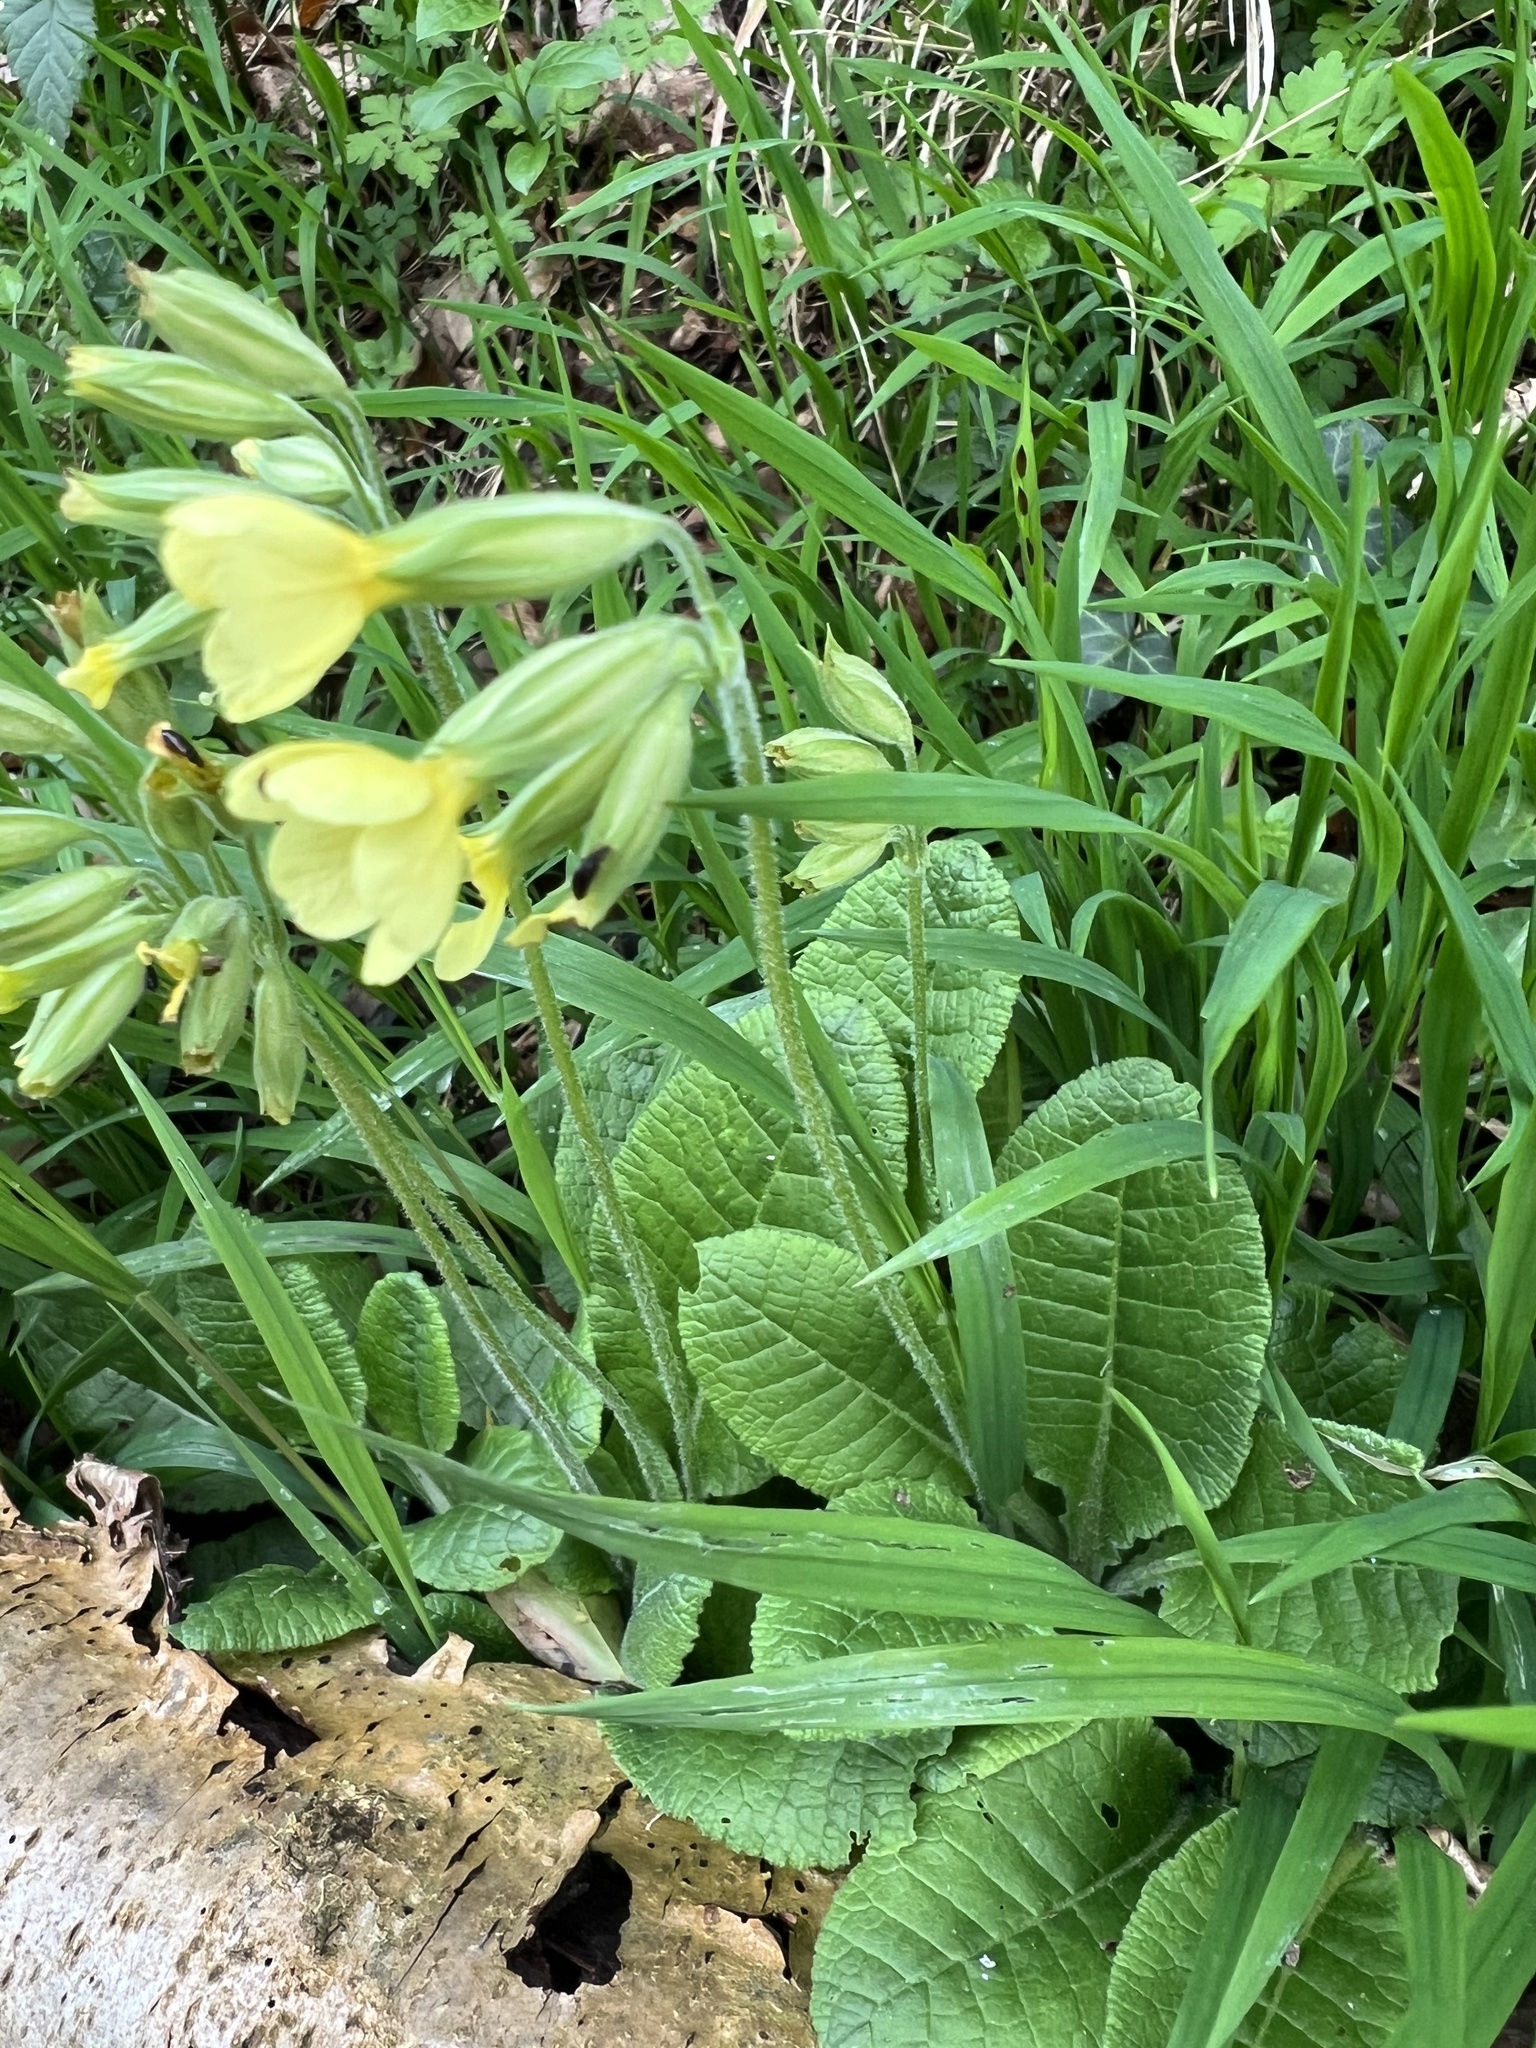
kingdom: Plantae
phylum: Tracheophyta
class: Magnoliopsida
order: Ericales
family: Primulaceae
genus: Primula
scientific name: Primula elatior
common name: Oxlip
